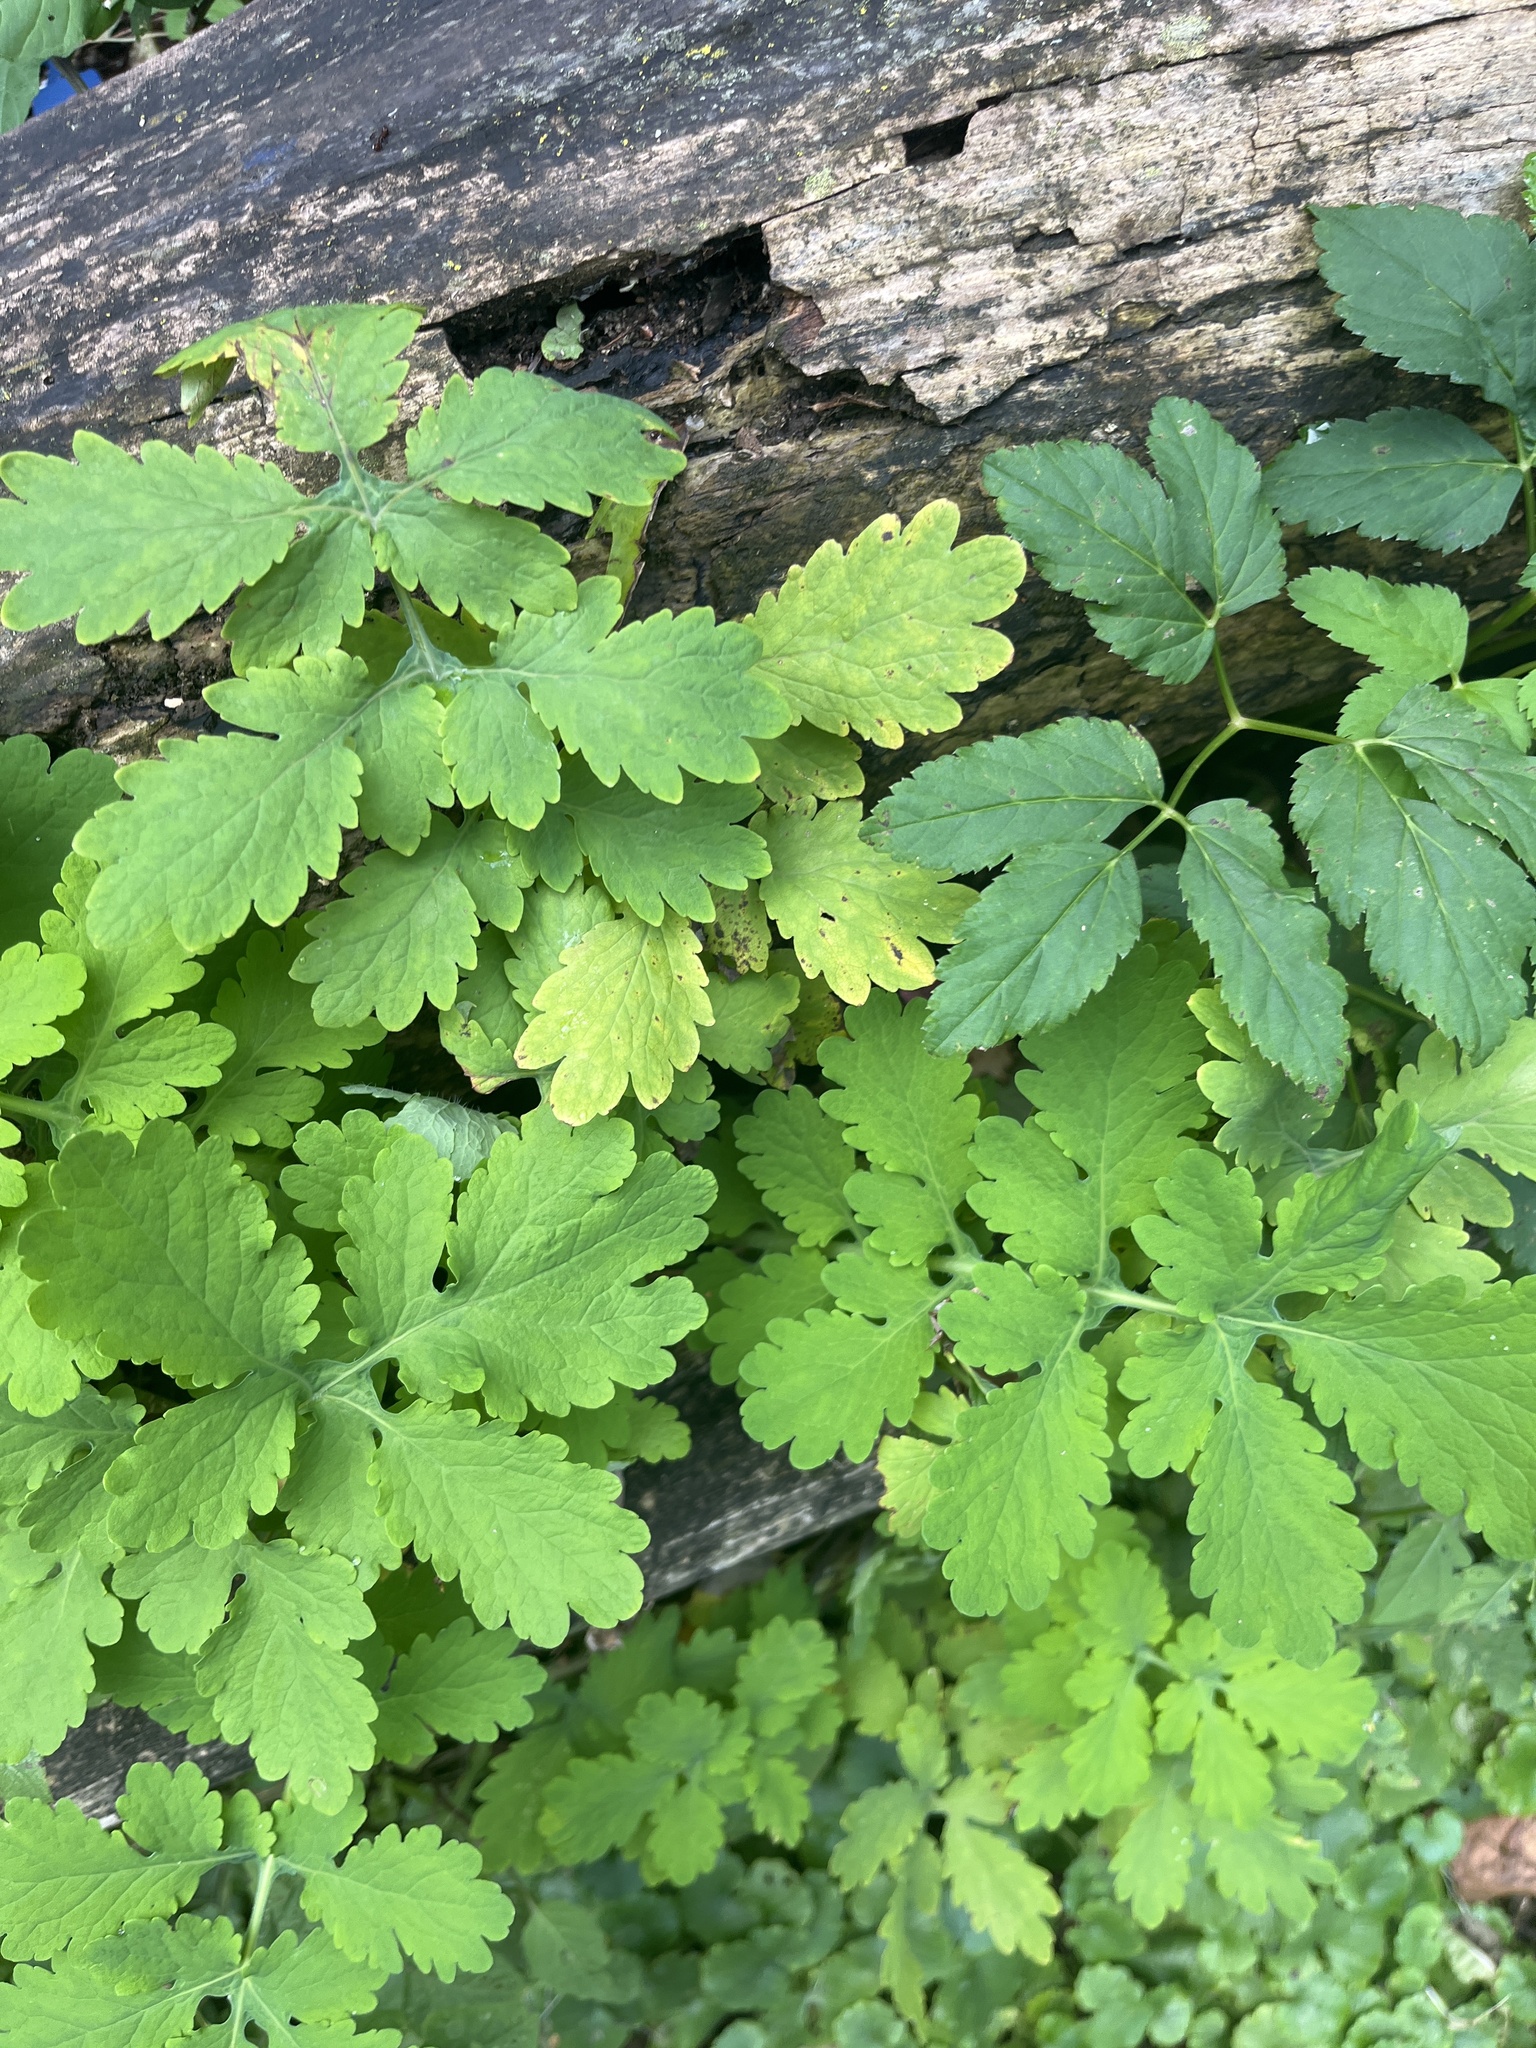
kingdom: Plantae
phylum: Tracheophyta
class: Magnoliopsida
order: Ranunculales
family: Papaveraceae
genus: Chelidonium
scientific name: Chelidonium majus
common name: Greater celandine
